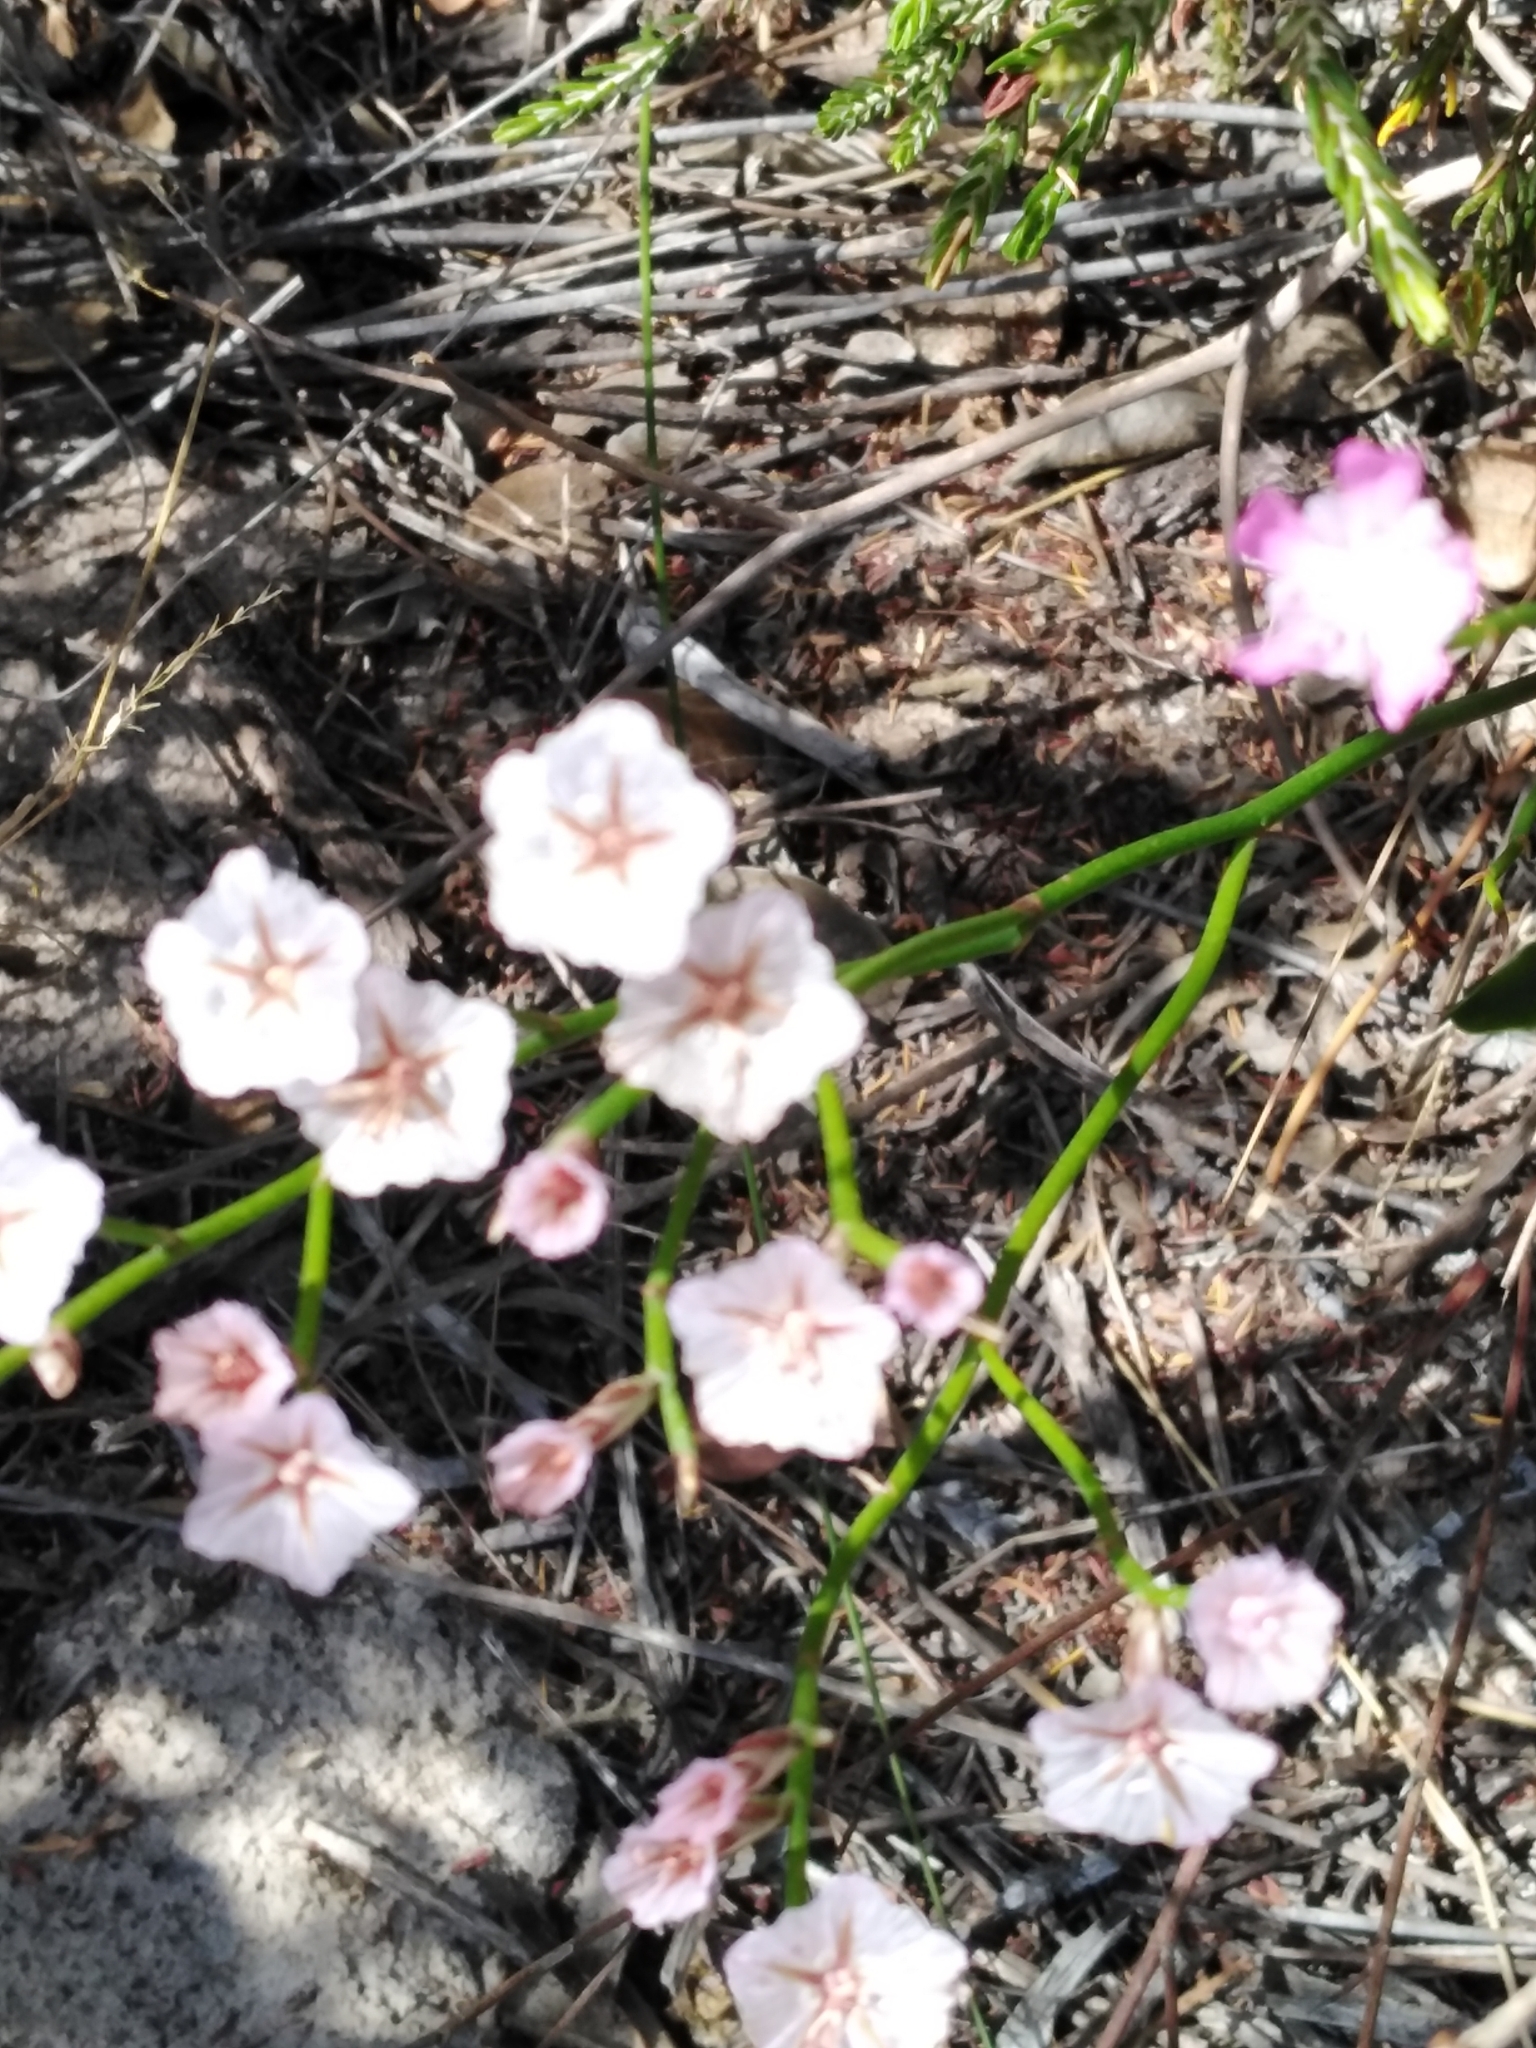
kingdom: Plantae
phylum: Tracheophyta
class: Magnoliopsida
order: Caryophyllales
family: Plumbaginaceae
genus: Limonium
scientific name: Limonium purpuratum
